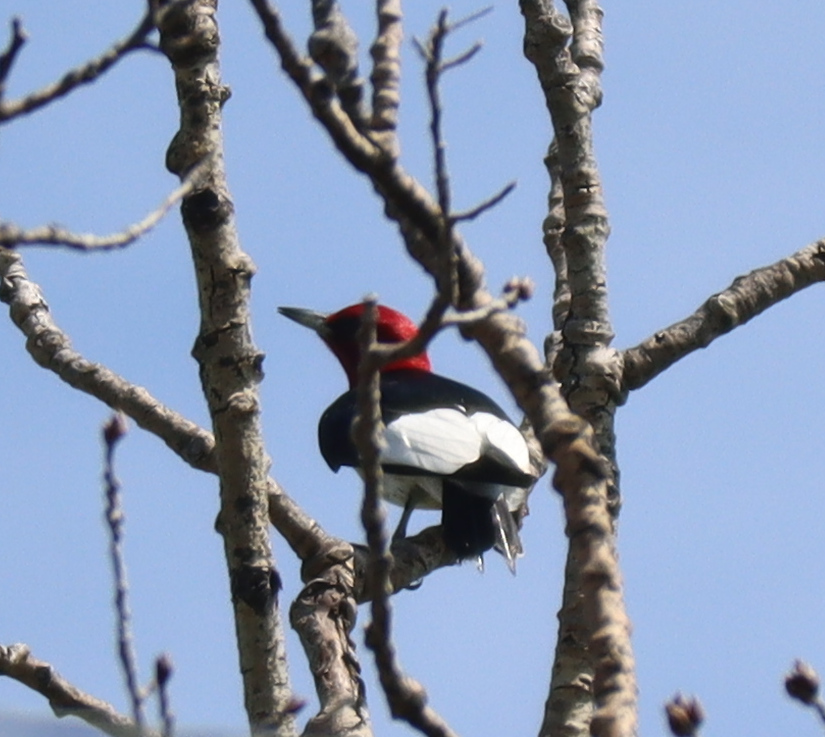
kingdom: Animalia
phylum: Chordata
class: Aves
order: Piciformes
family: Picidae
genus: Melanerpes
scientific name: Melanerpes erythrocephalus
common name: Red-headed woodpecker
